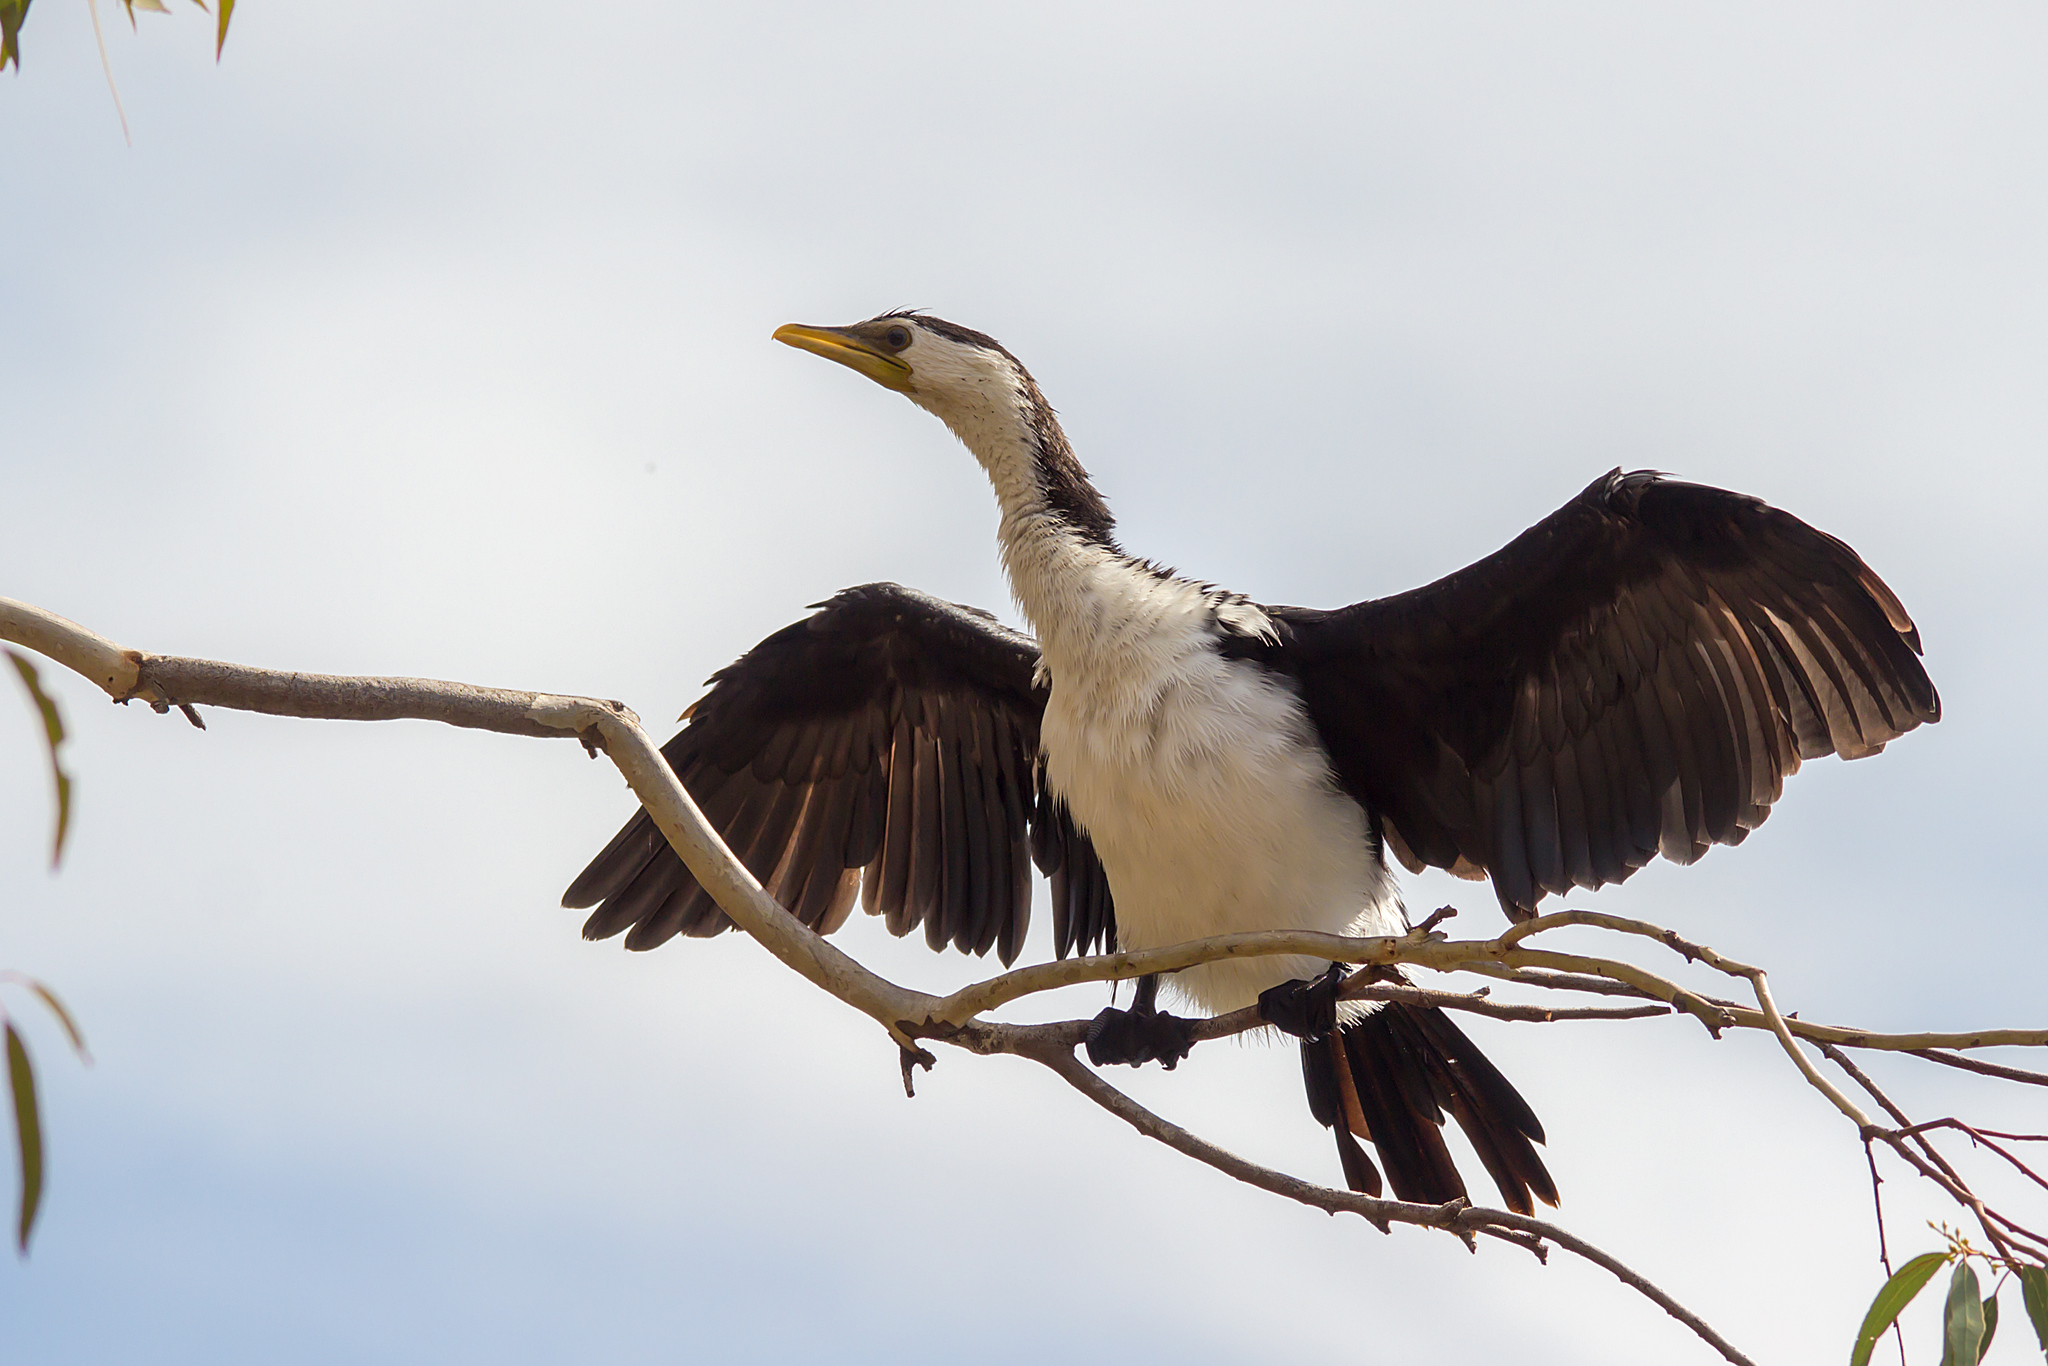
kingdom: Animalia
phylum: Chordata
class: Aves
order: Suliformes
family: Phalacrocoracidae
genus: Microcarbo
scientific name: Microcarbo melanoleucos
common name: Little pied cormorant
